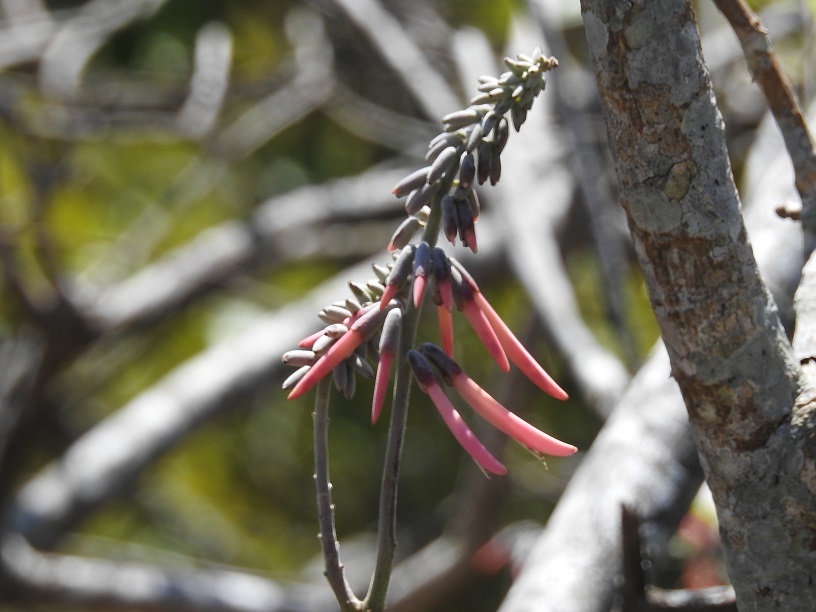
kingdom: Plantae
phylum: Tracheophyta
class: Magnoliopsida
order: Fabales
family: Fabaceae
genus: Erythrina
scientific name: Erythrina lanata
